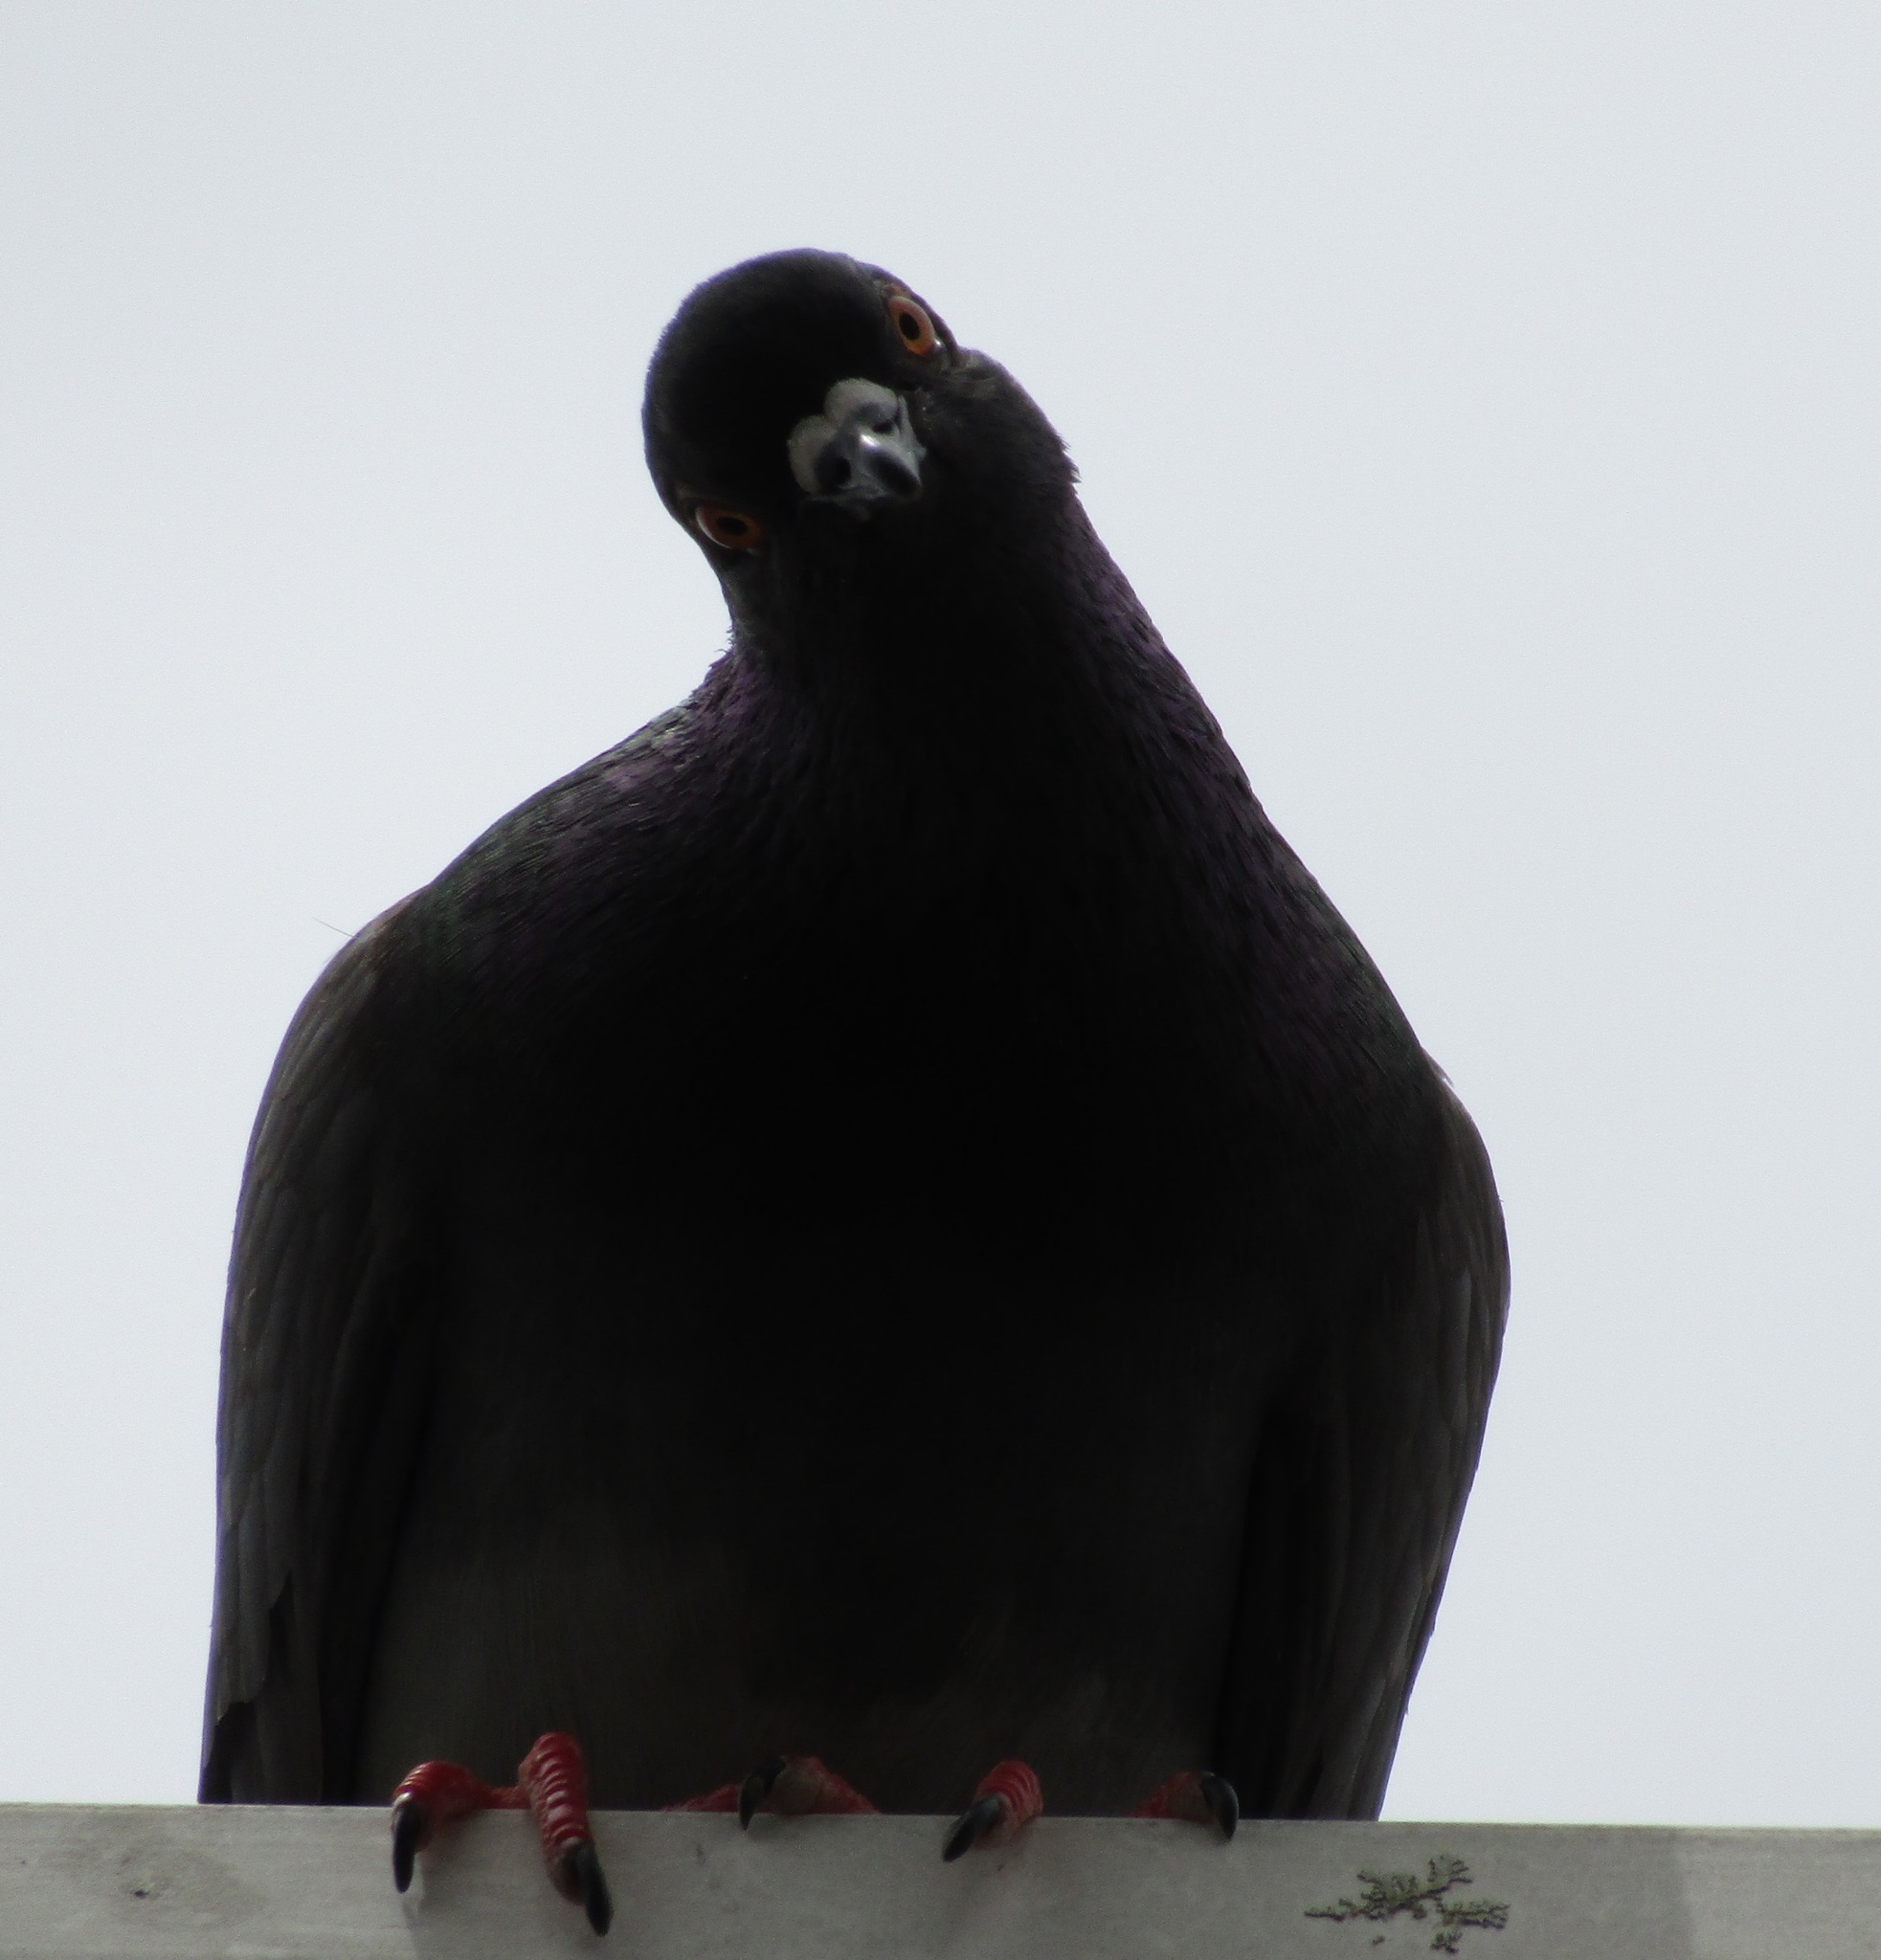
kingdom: Animalia
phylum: Chordata
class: Aves
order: Columbiformes
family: Columbidae
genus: Columba
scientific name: Columba livia
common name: Rock pigeon
